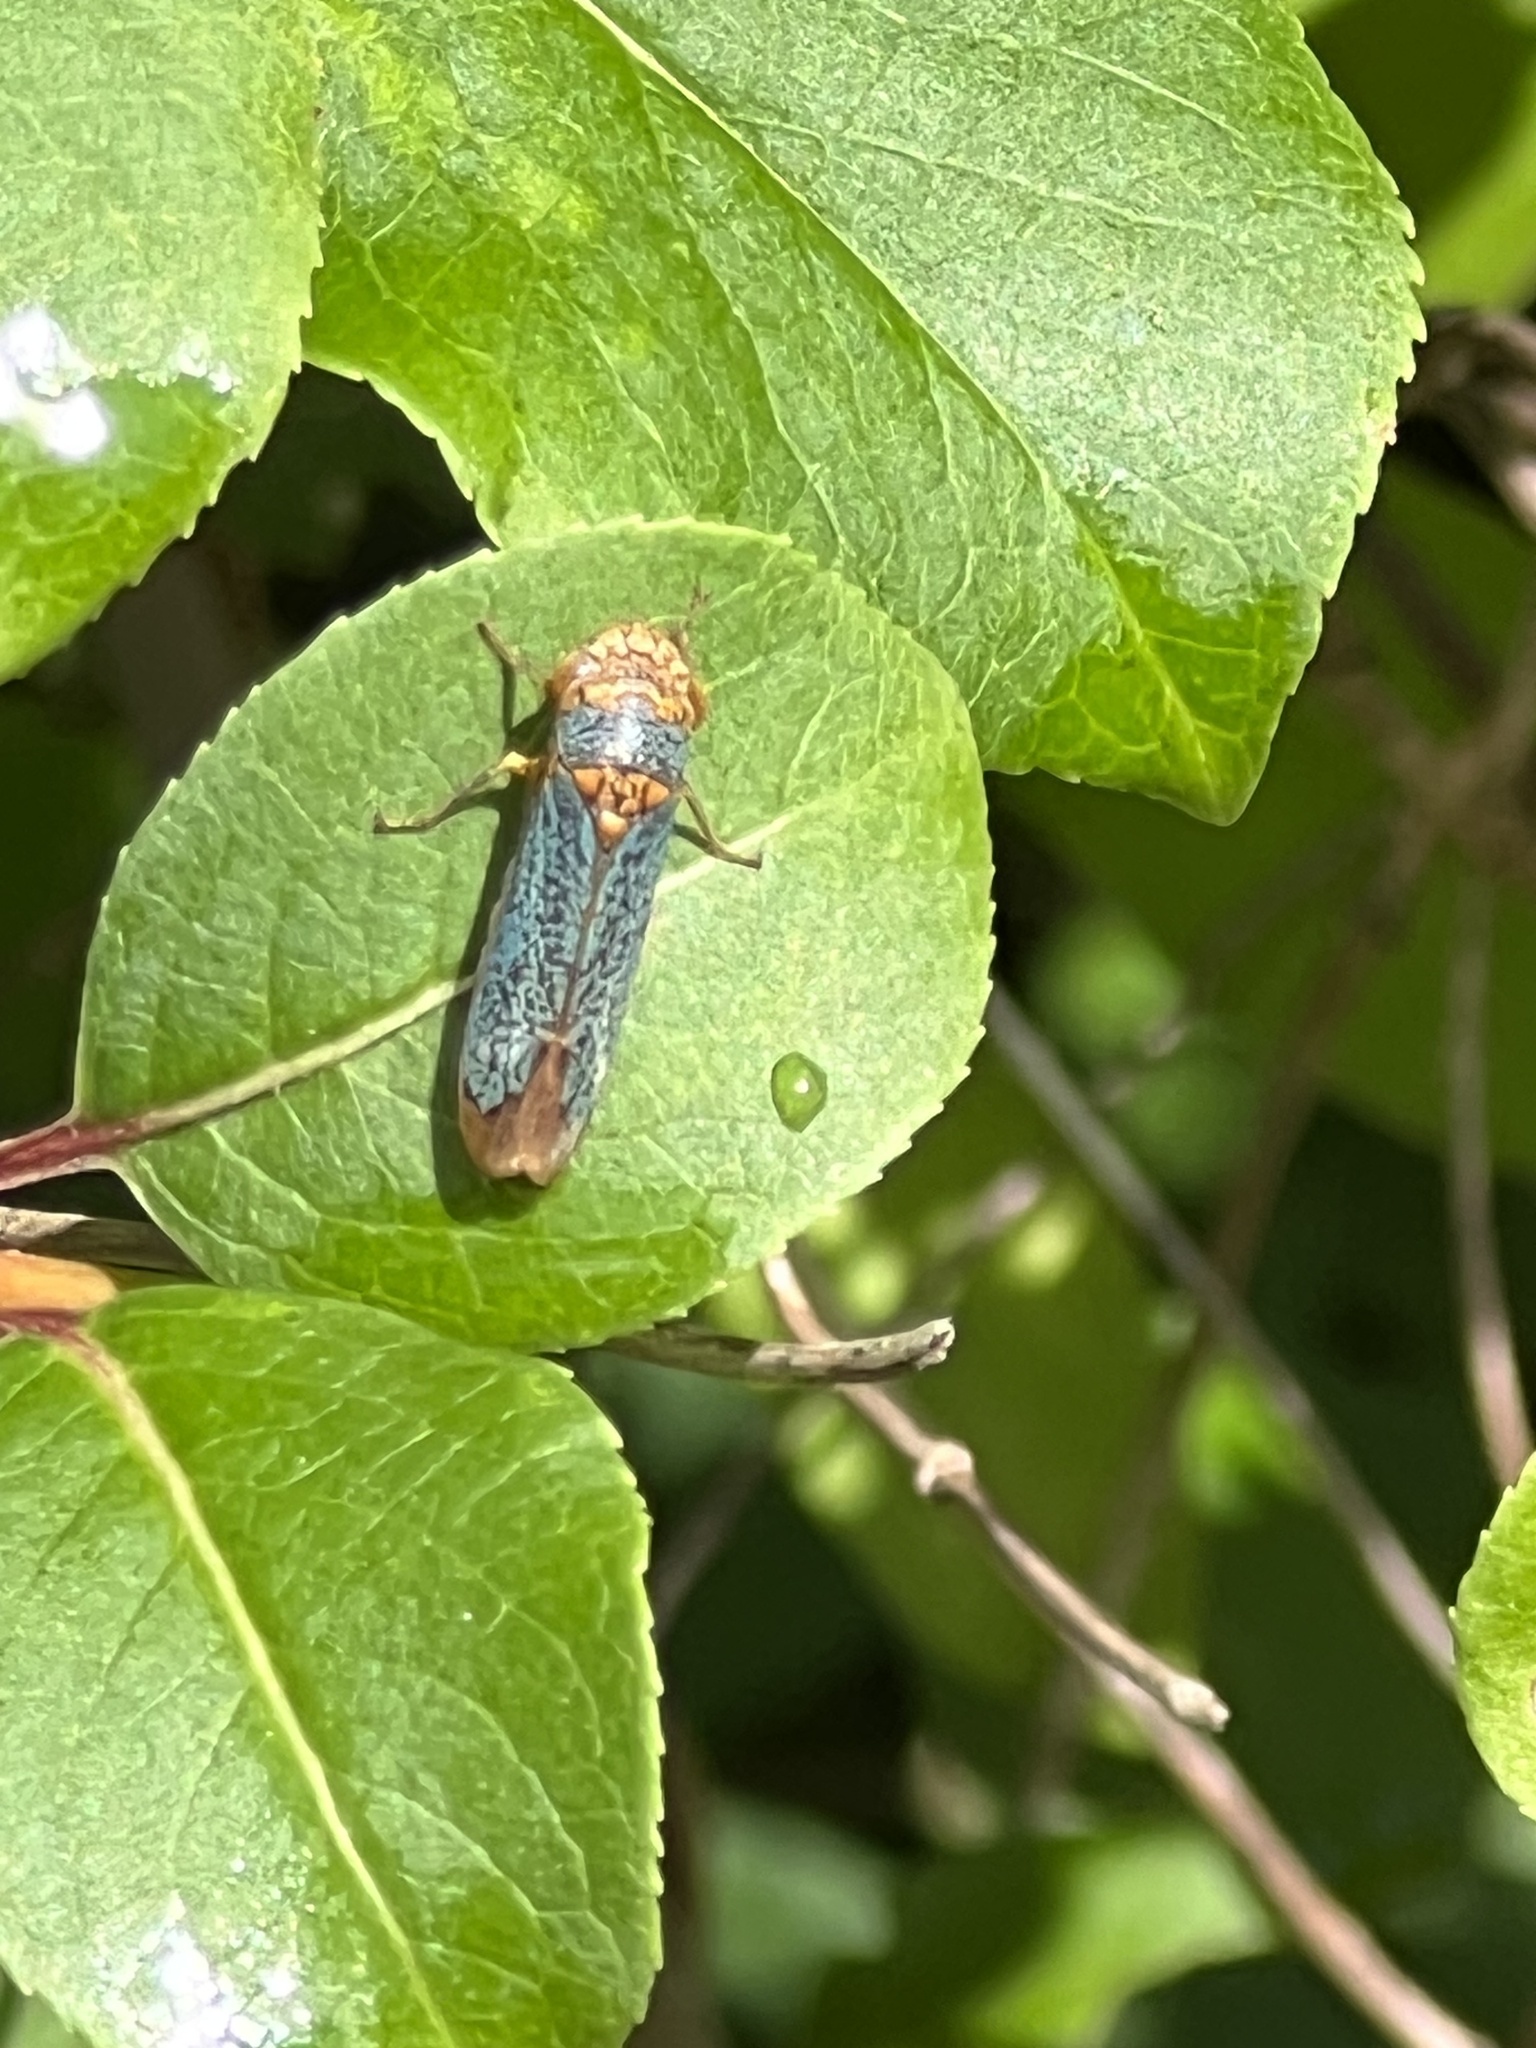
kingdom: Animalia
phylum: Arthropoda
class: Insecta
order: Hemiptera
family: Cicadellidae
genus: Oncometopia
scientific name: Oncometopia orbona
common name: Broad-headed sharpshooter
